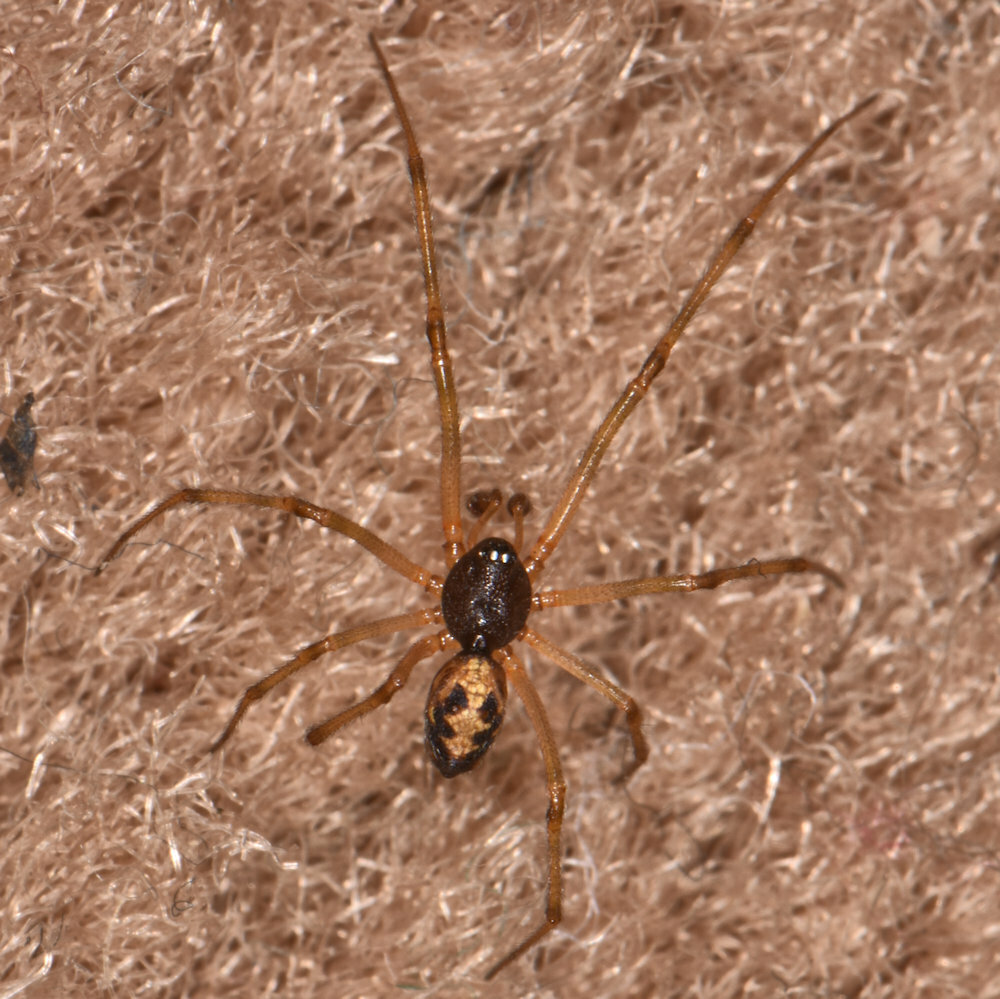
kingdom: Animalia
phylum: Arthropoda
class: Arachnida
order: Araneae
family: Theridiidae
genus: Steatoda
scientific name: Steatoda triangulosa
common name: Triangulate bud spider
